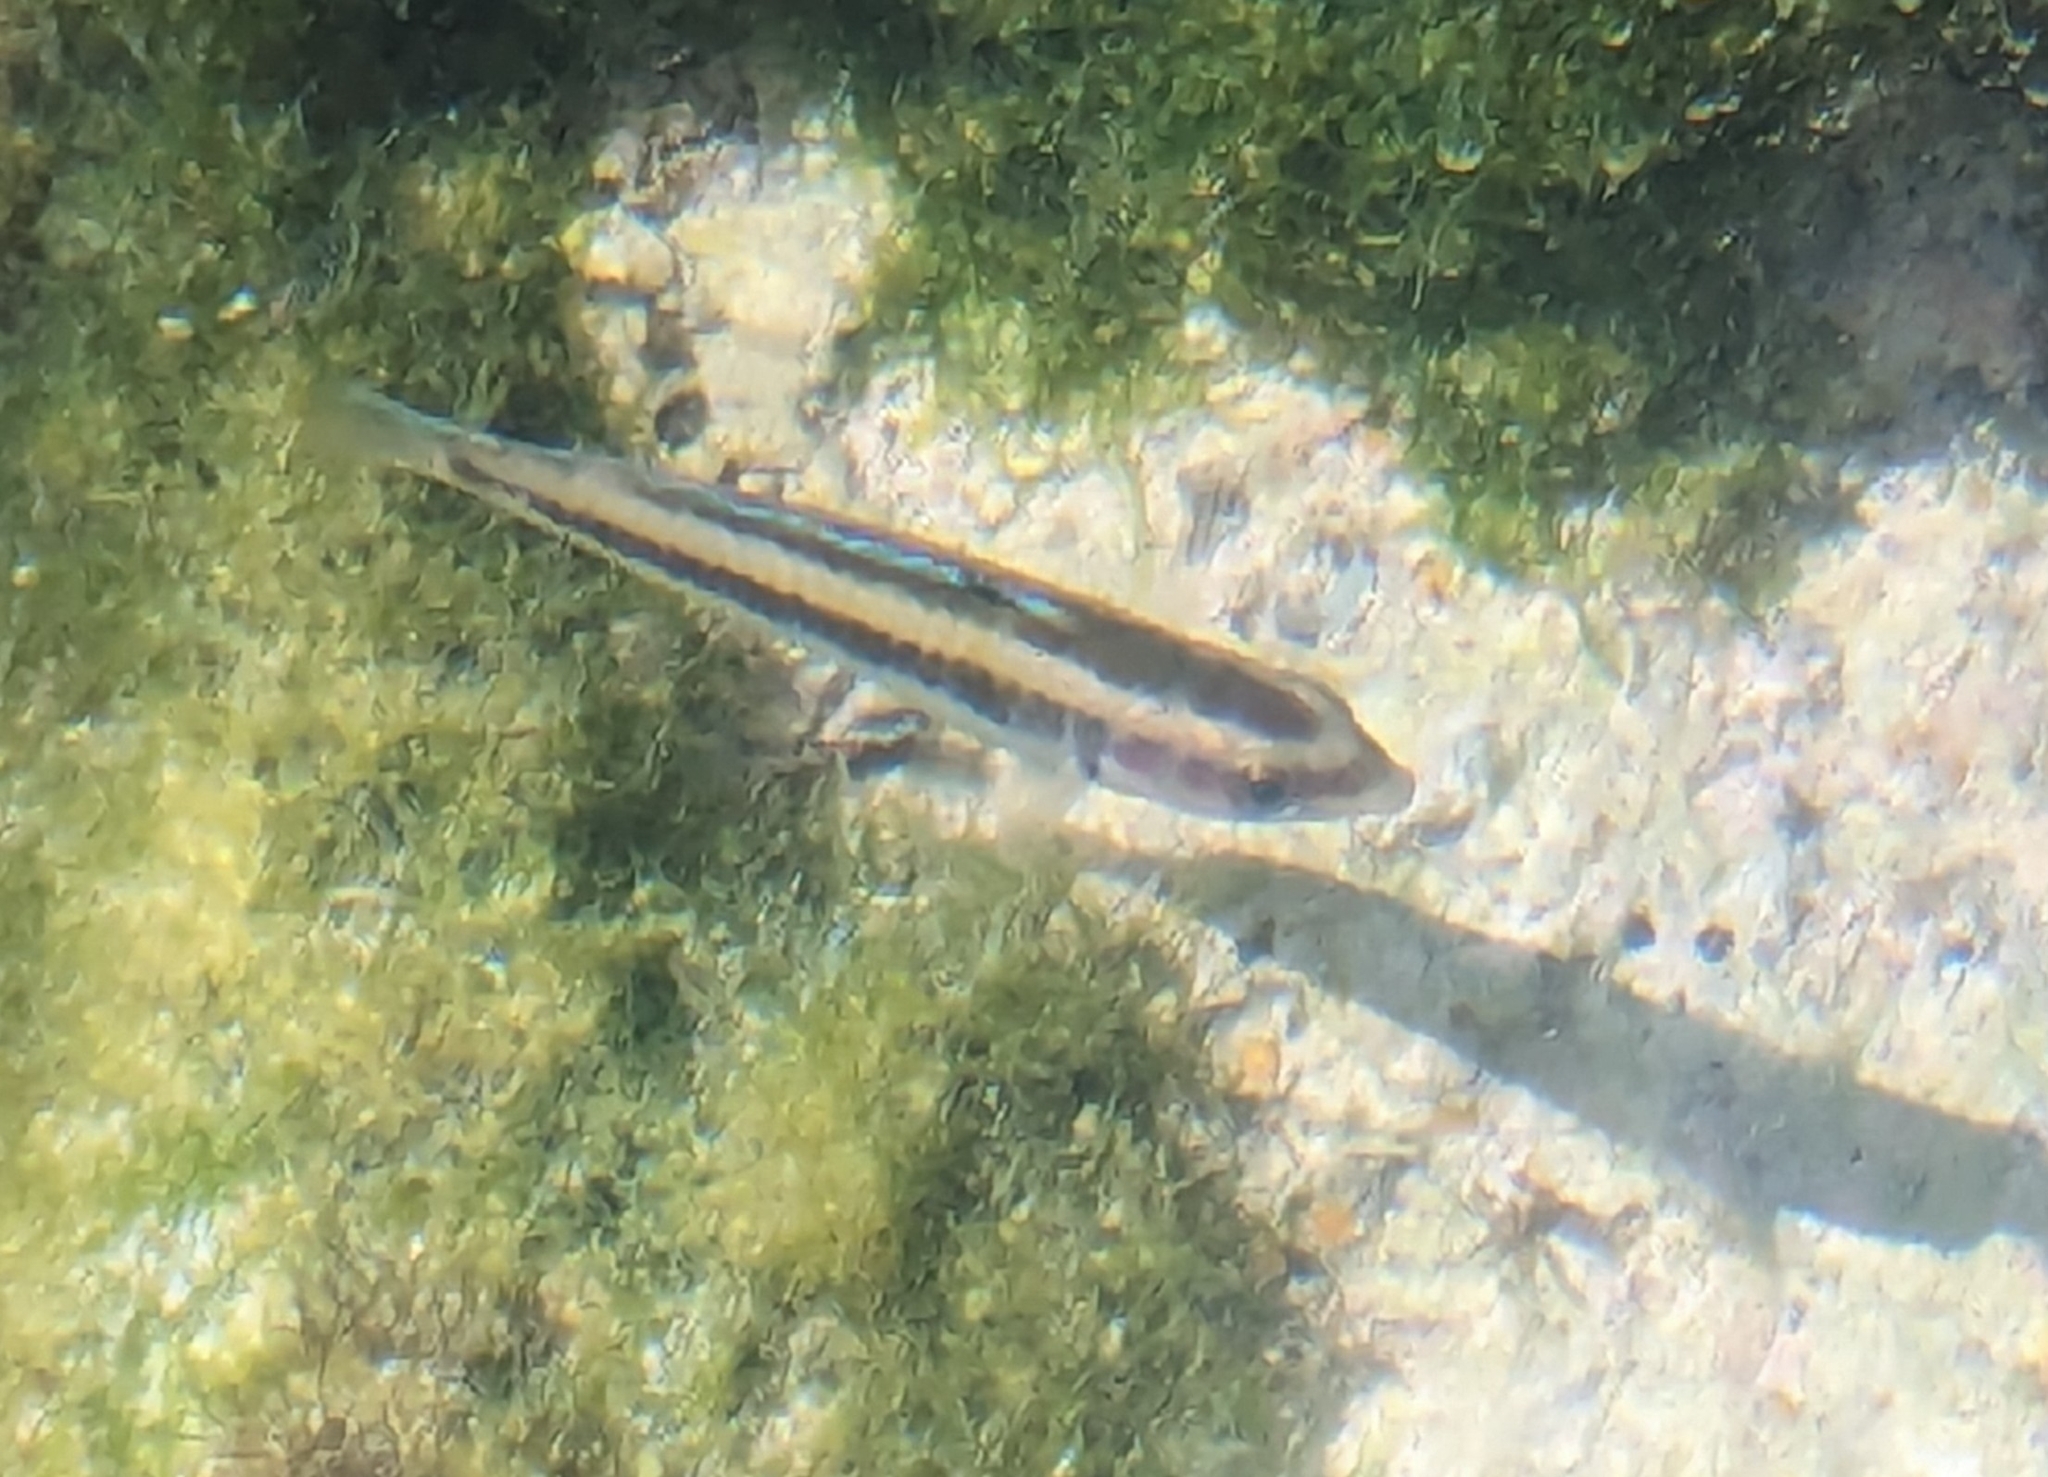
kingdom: Animalia
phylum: Chordata
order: Perciformes
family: Labridae
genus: Thalassoma
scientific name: Thalassoma bifasciatum
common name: Bluehead wrasse
